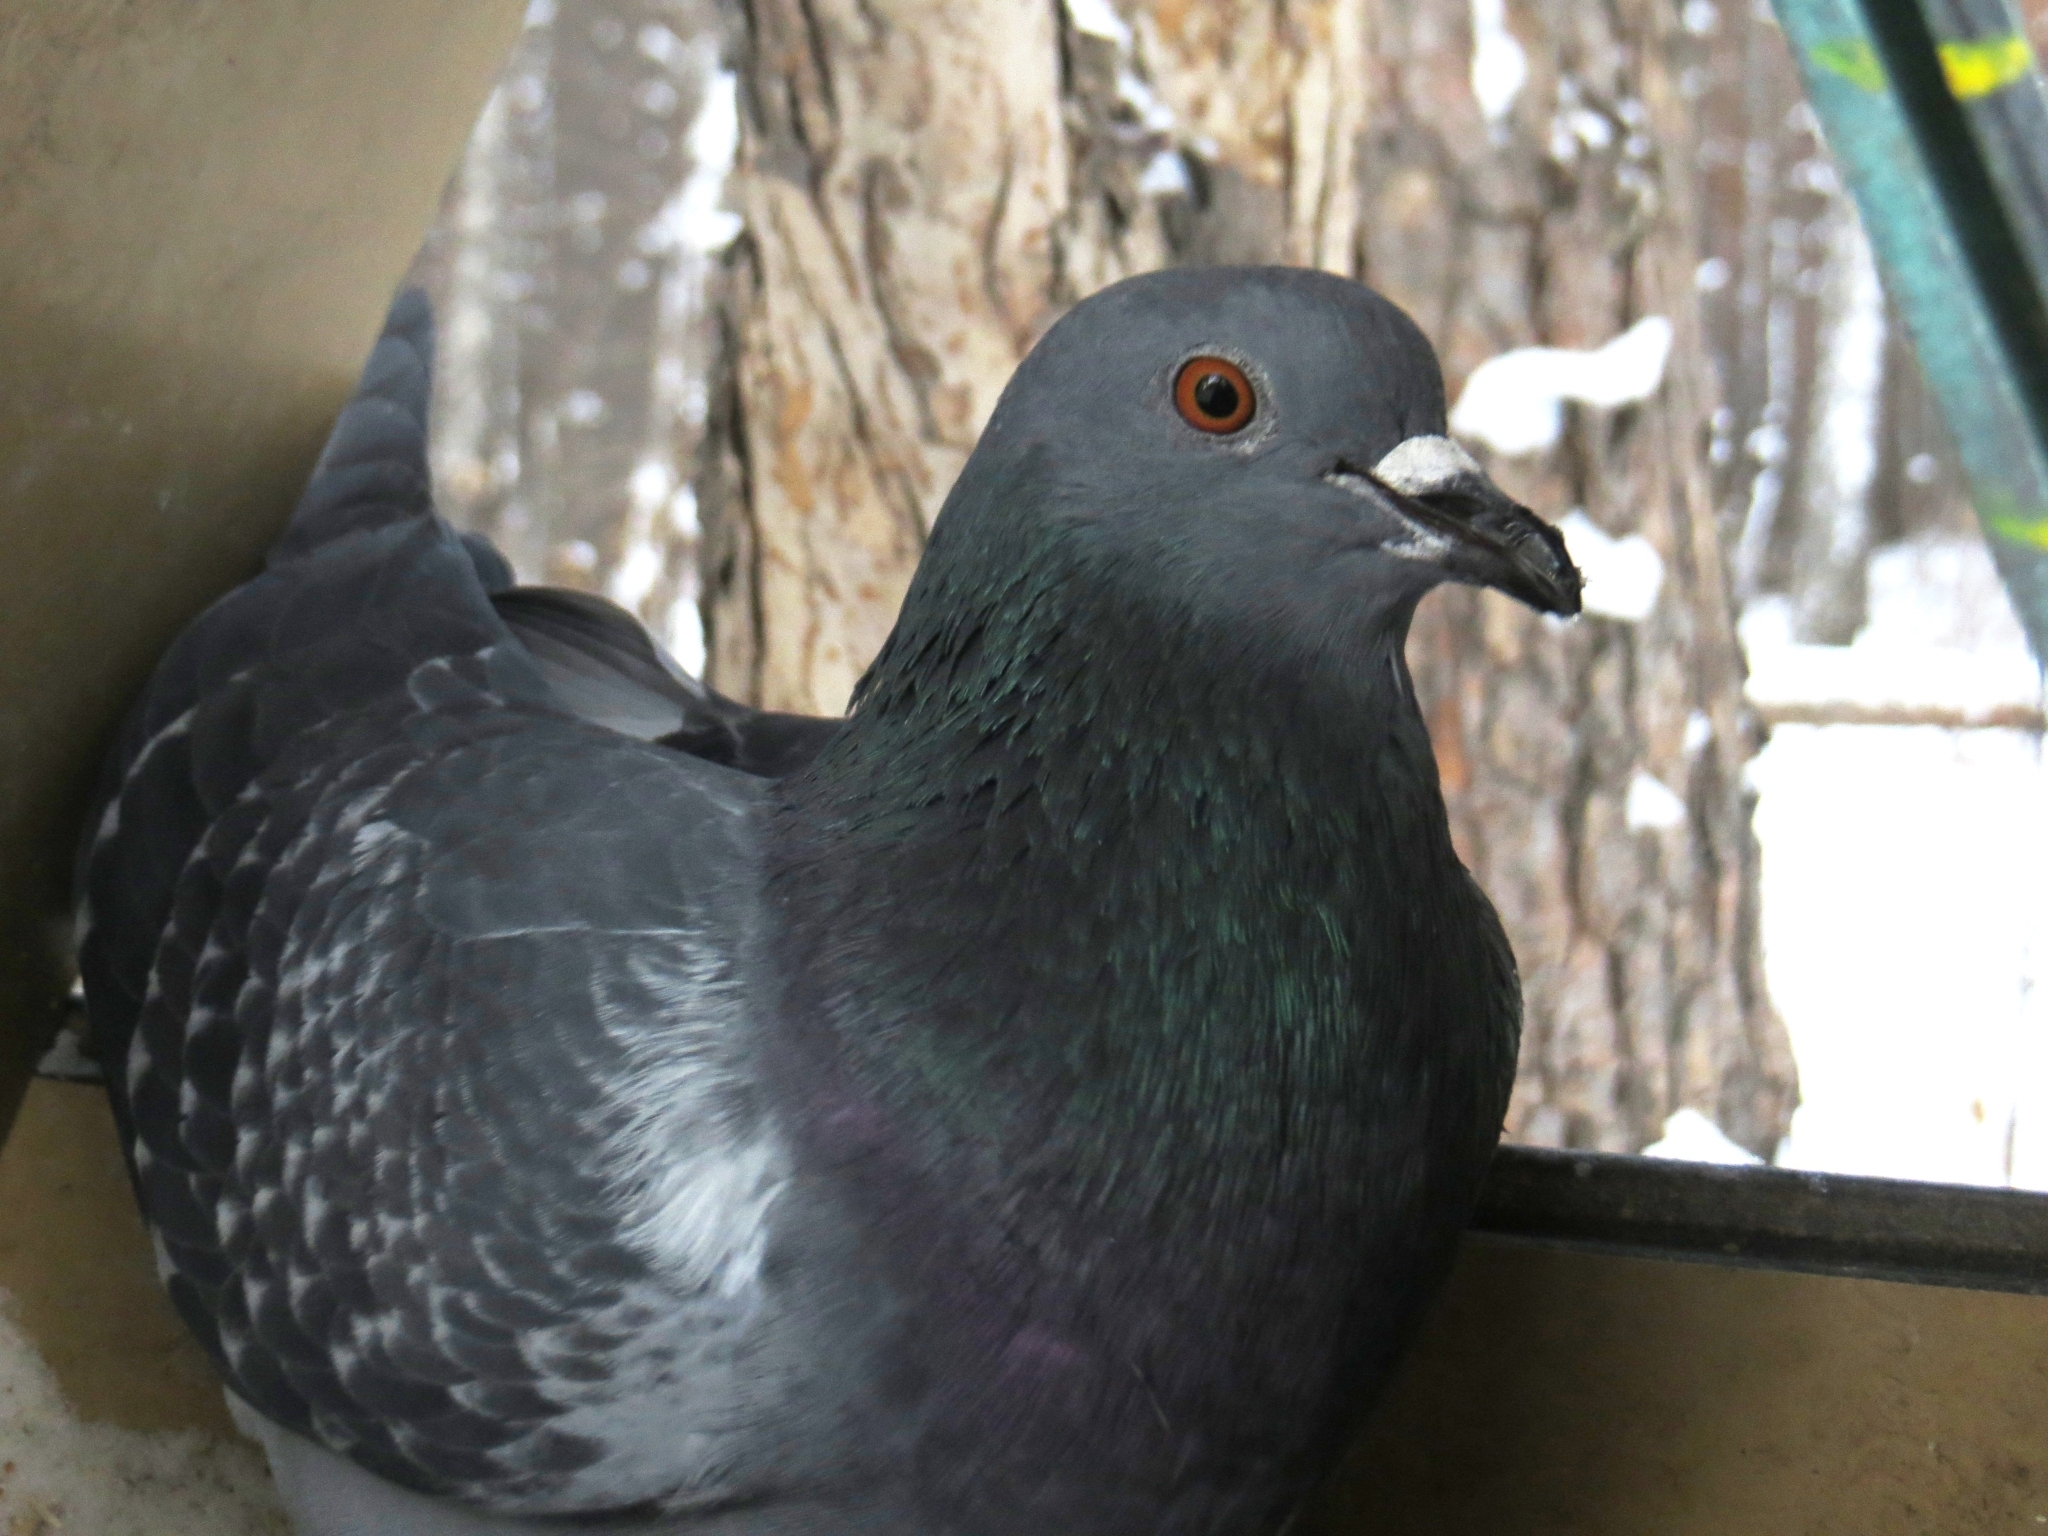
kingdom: Animalia
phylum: Chordata
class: Aves
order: Columbiformes
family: Columbidae
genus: Columba
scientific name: Columba livia
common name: Rock pigeon
